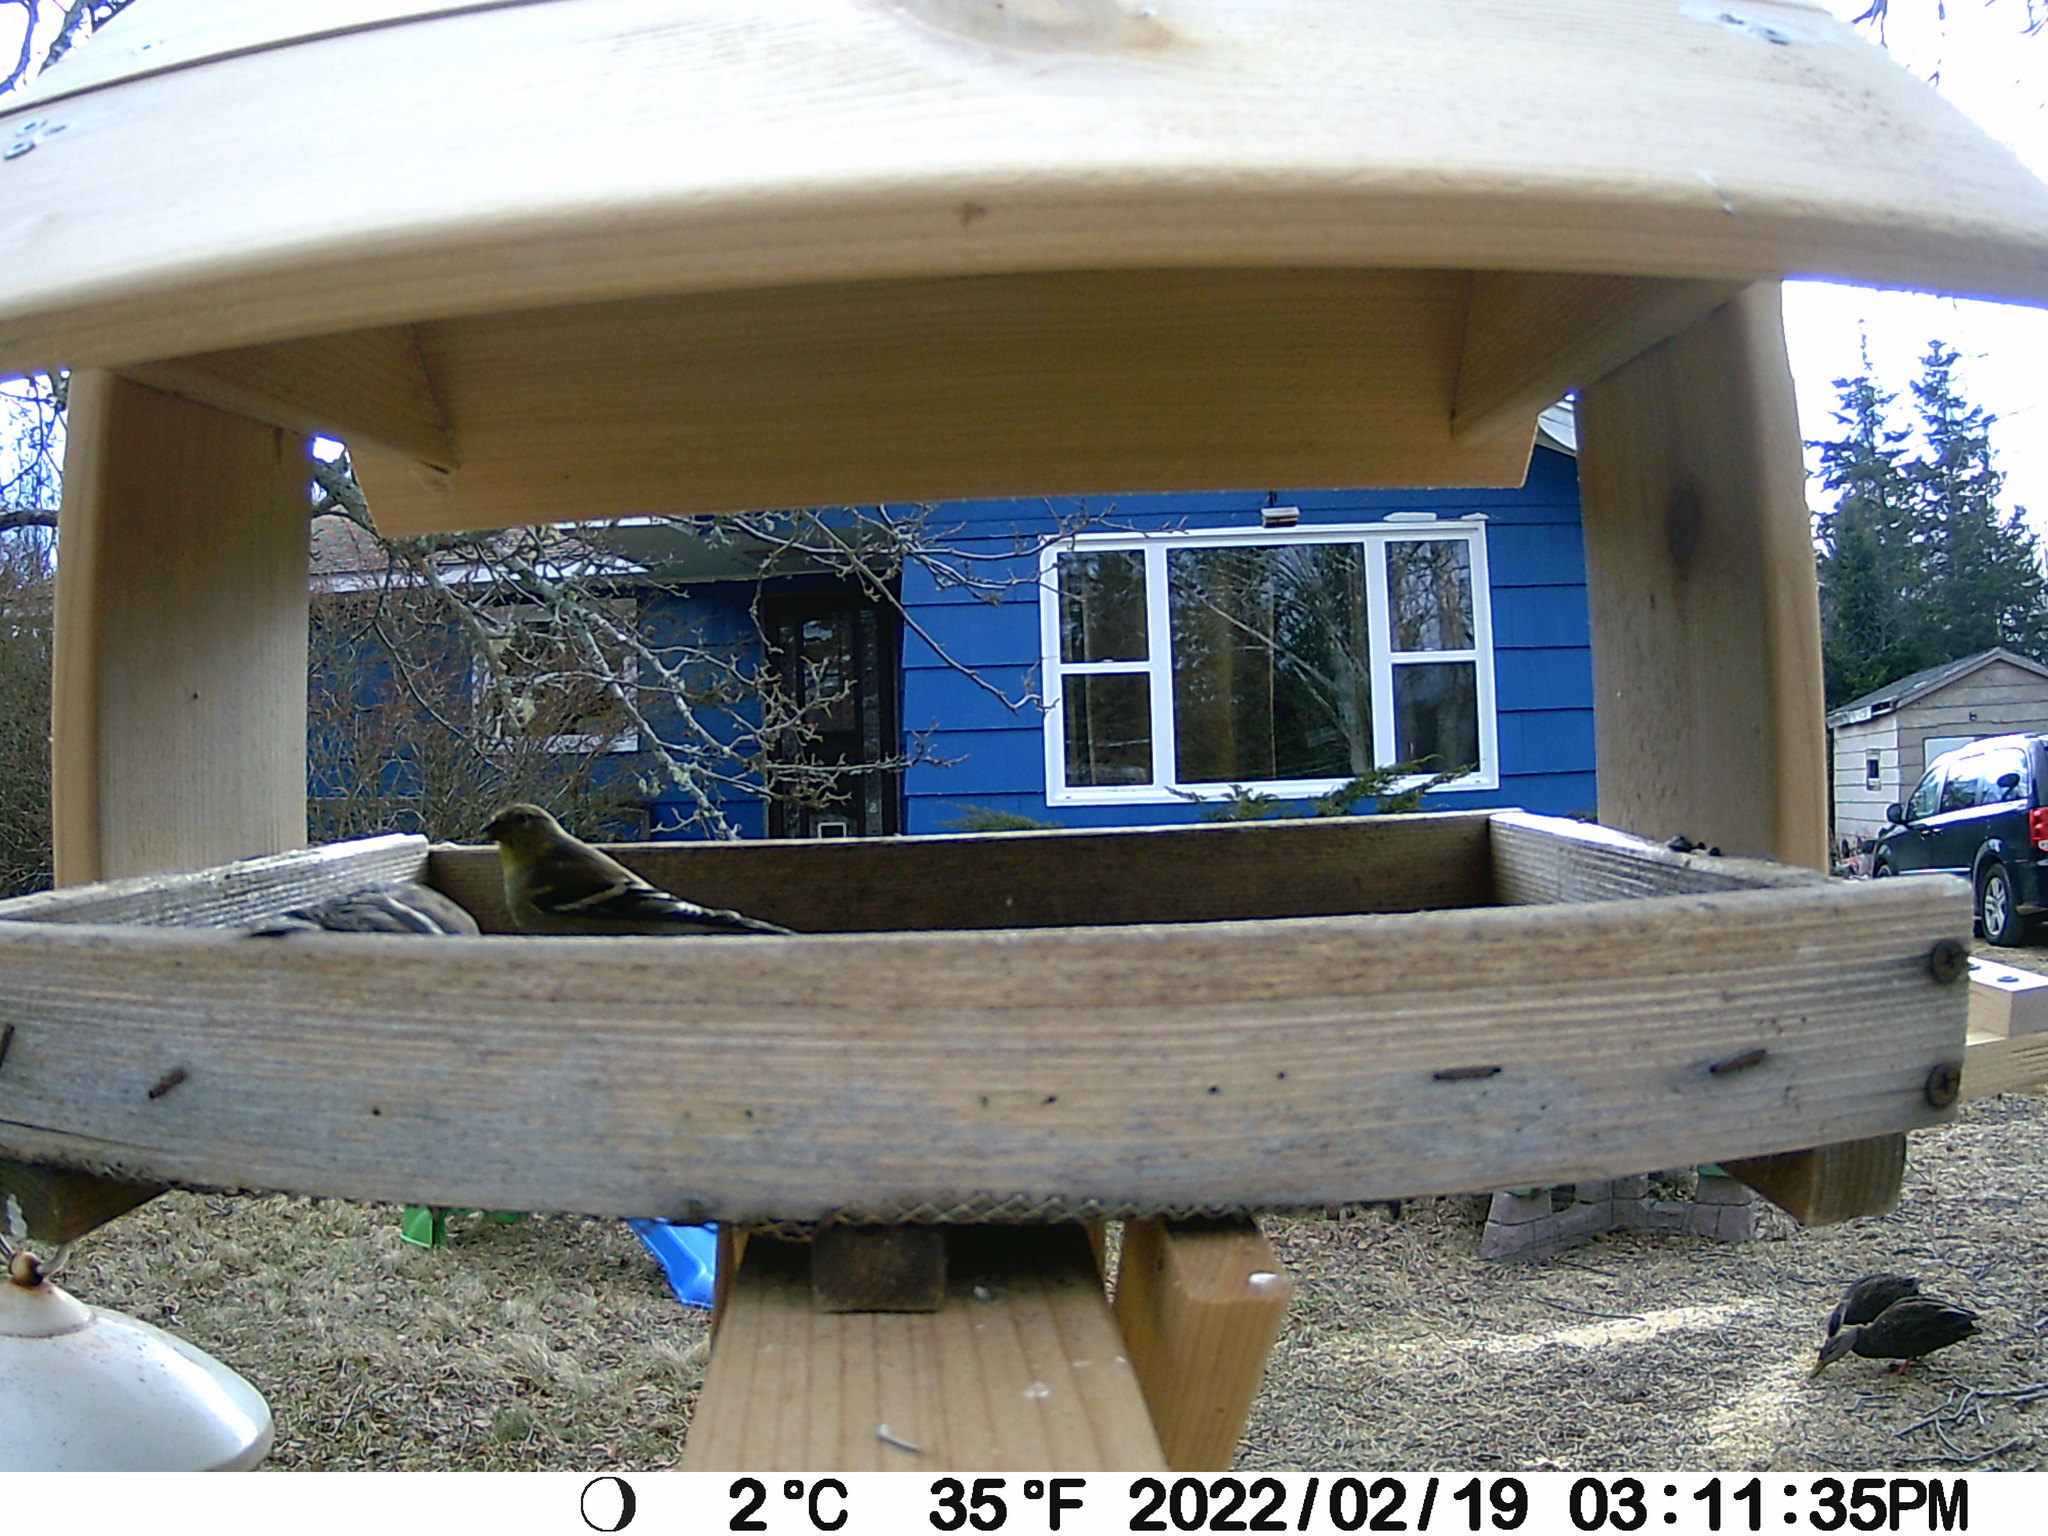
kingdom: Animalia
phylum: Chordata
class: Aves
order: Anseriformes
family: Anatidae
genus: Anas
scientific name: Anas rubripes
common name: American black duck
